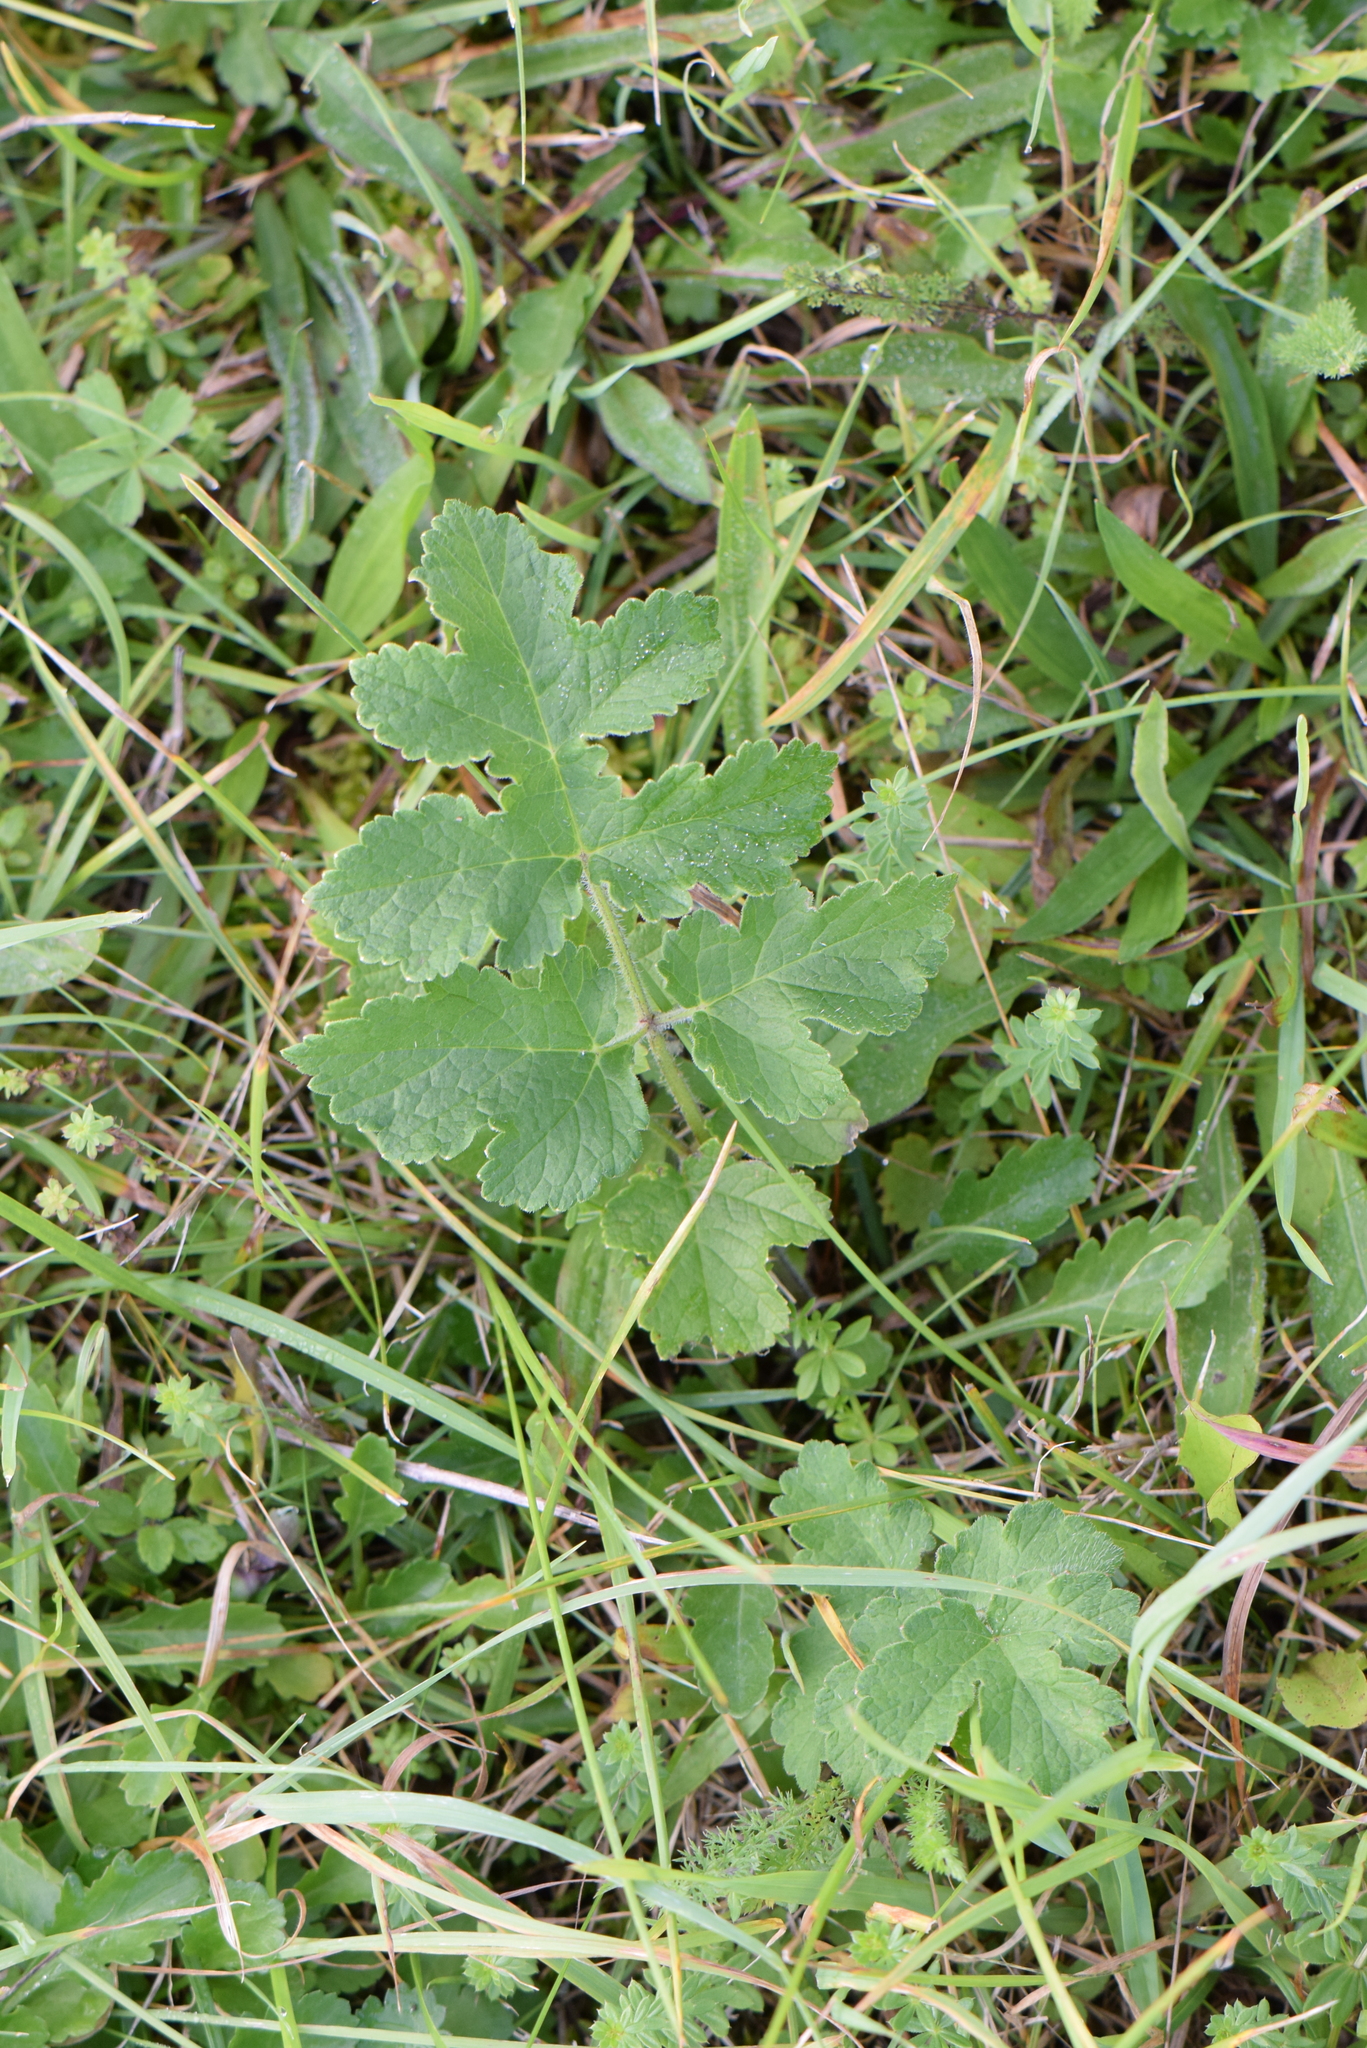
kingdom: Plantae
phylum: Tracheophyta
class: Magnoliopsida
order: Apiales
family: Apiaceae
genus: Heracleum
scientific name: Heracleum sphondylium
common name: Hogweed
